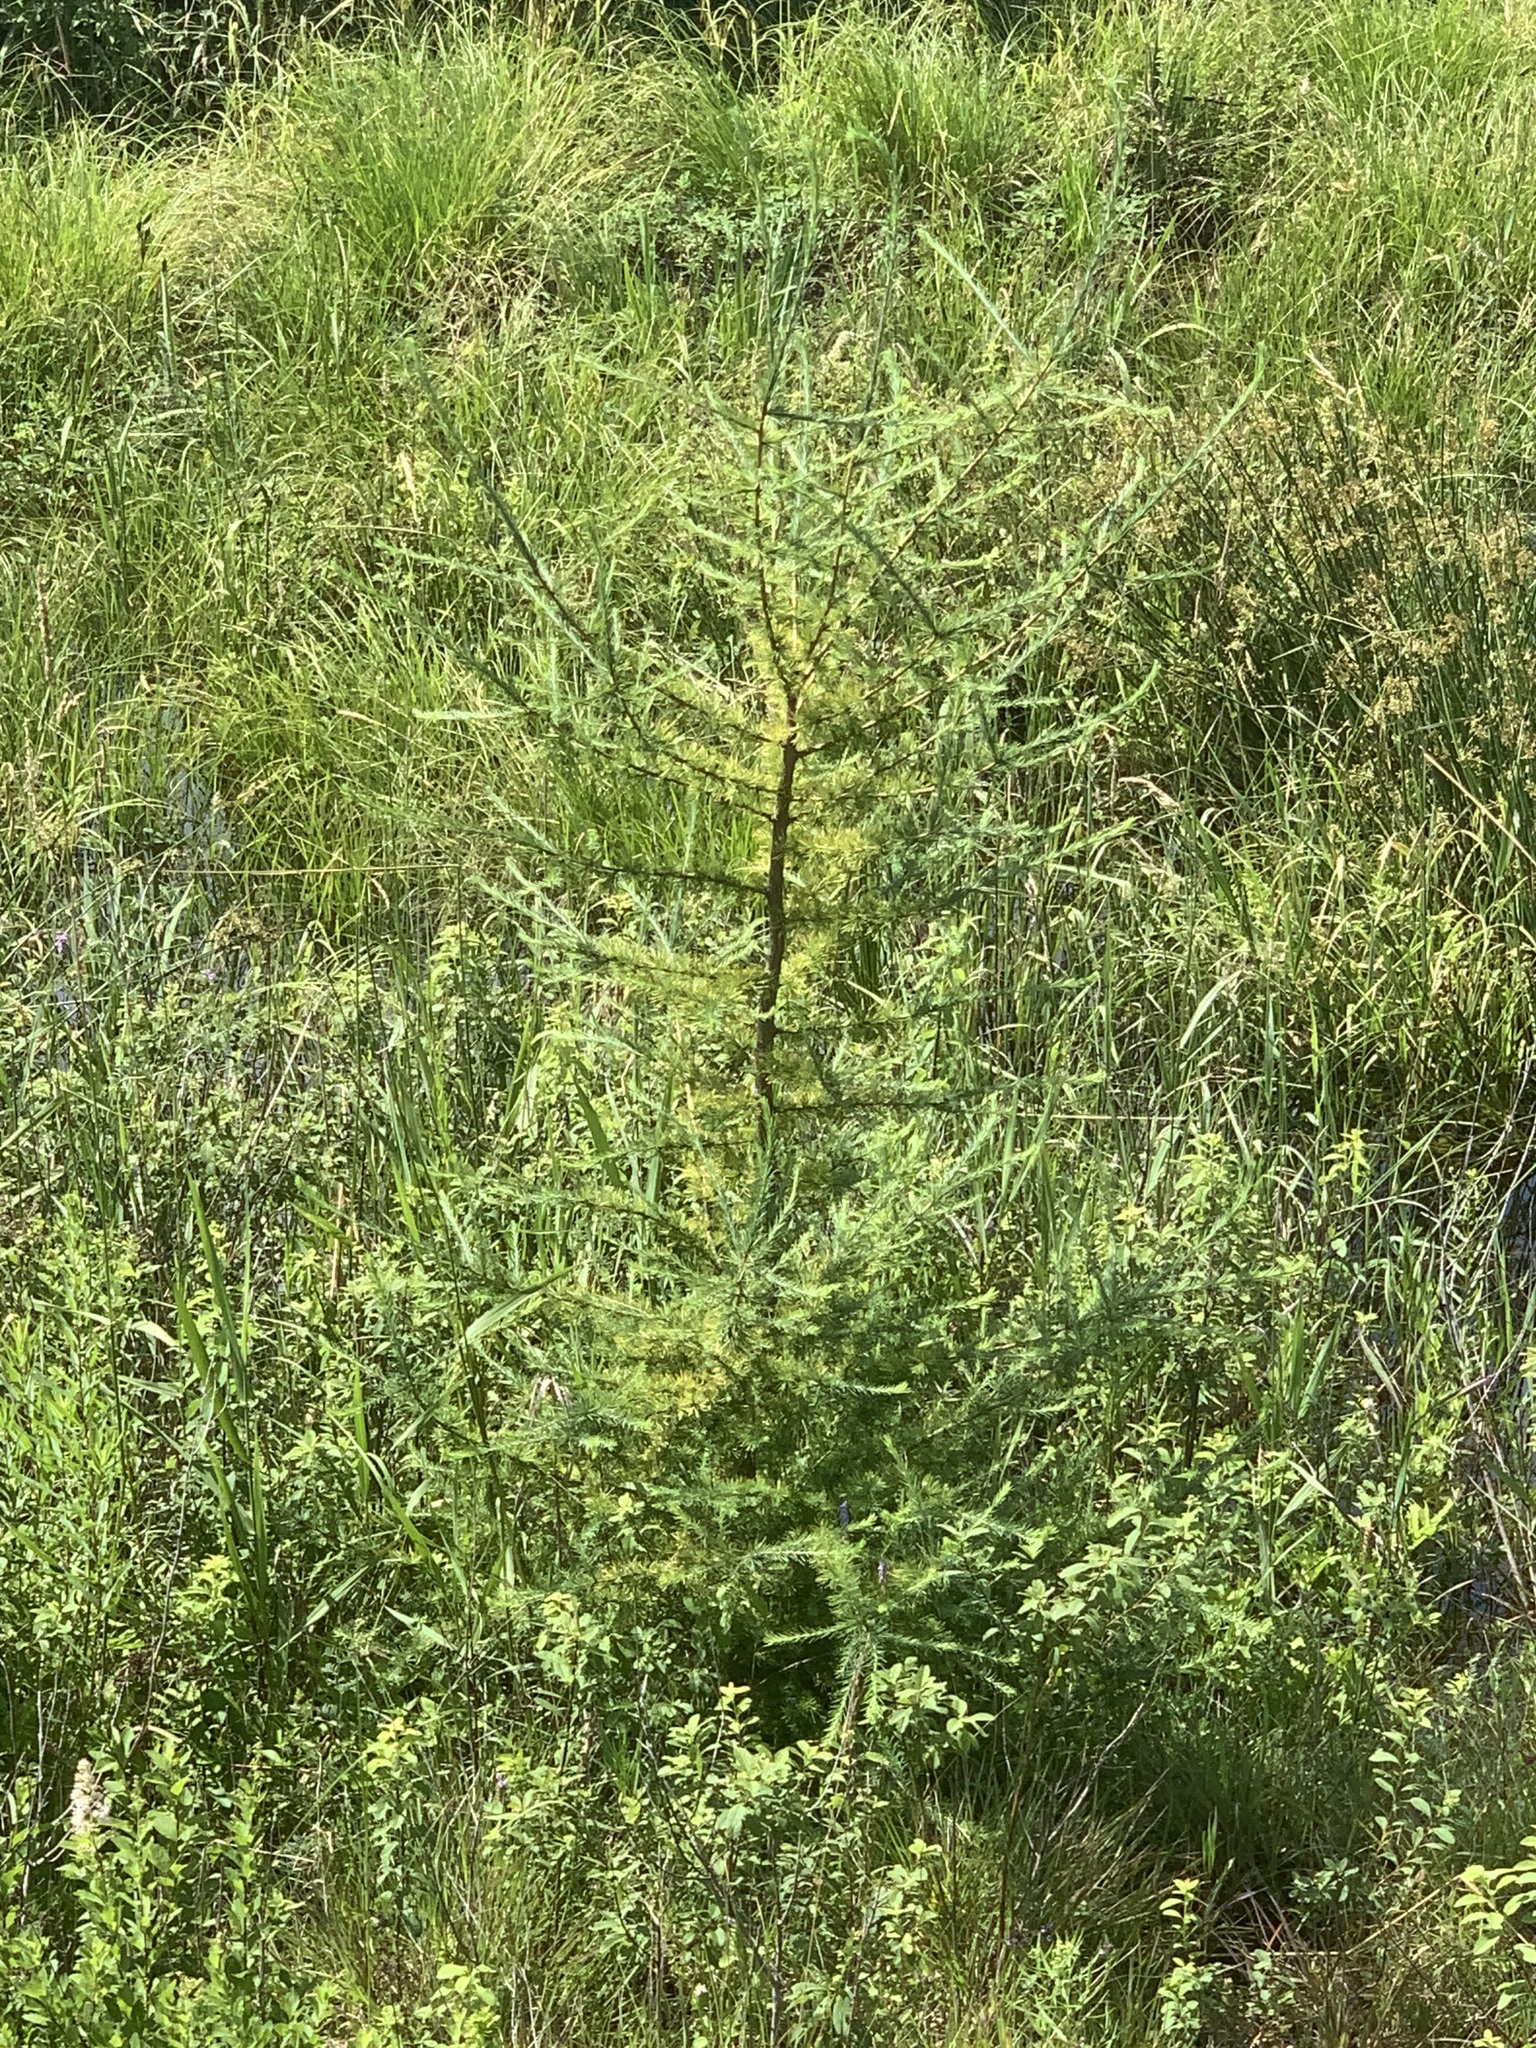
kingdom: Plantae
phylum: Tracheophyta
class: Pinopsida
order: Pinales
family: Pinaceae
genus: Larix
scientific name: Larix laricina
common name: American larch
